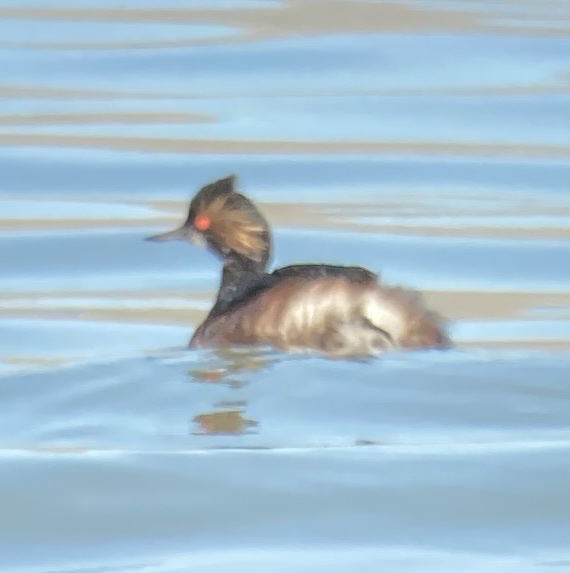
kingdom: Animalia
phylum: Chordata
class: Aves
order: Podicipediformes
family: Podicipedidae
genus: Podiceps
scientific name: Podiceps nigricollis
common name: Black-necked grebe
